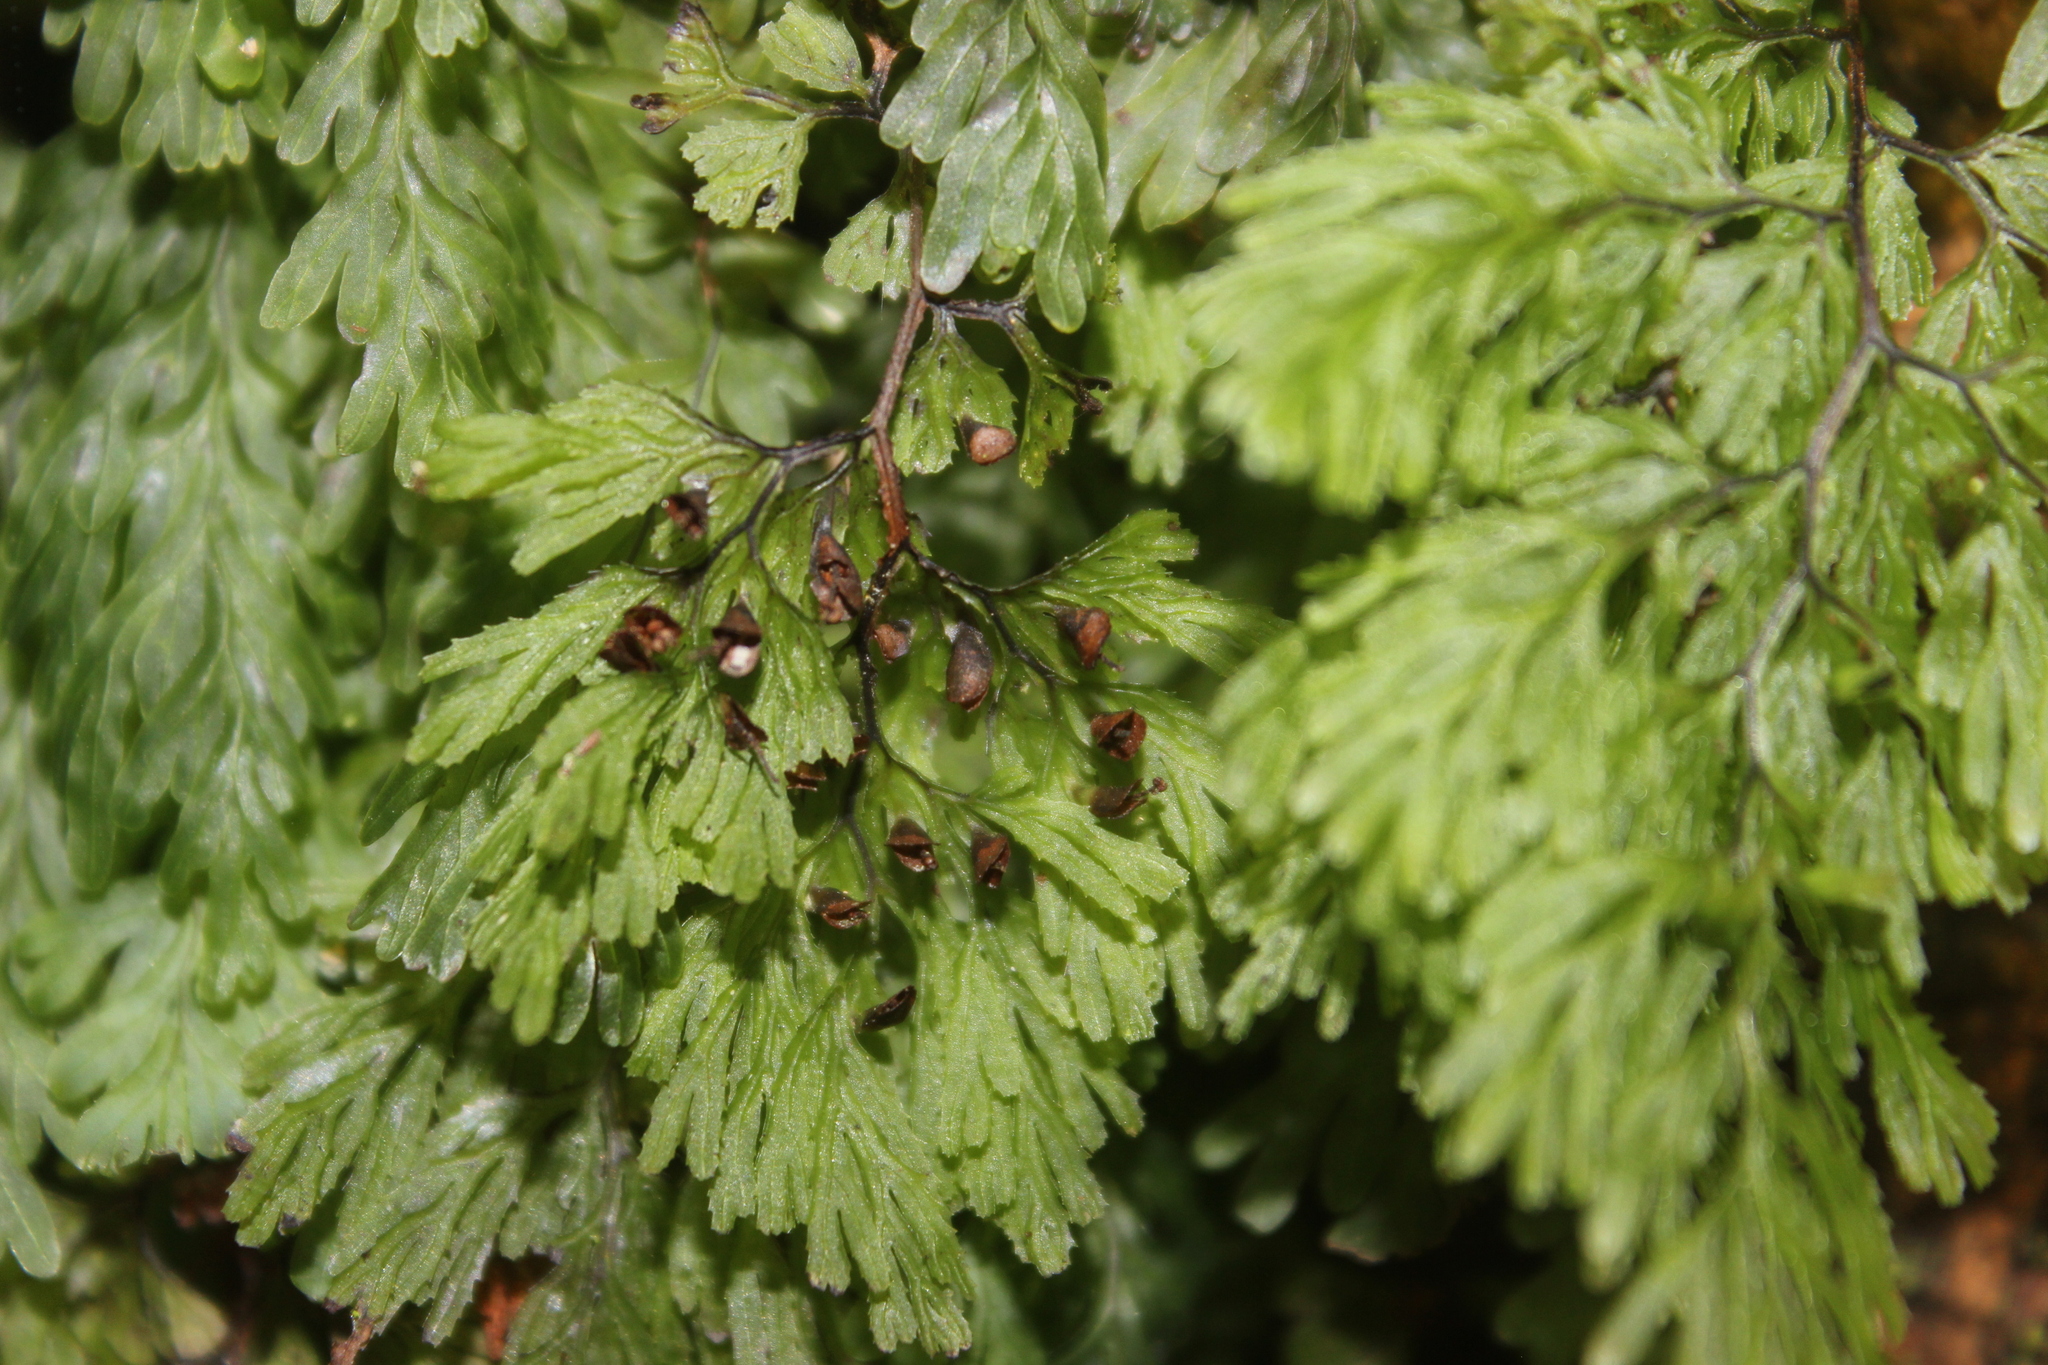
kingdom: Plantae
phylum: Tracheophyta
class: Polypodiopsida
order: Hymenophyllales
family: Hymenophyllaceae
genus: Hymenophyllum
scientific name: Hymenophyllum multifidum
